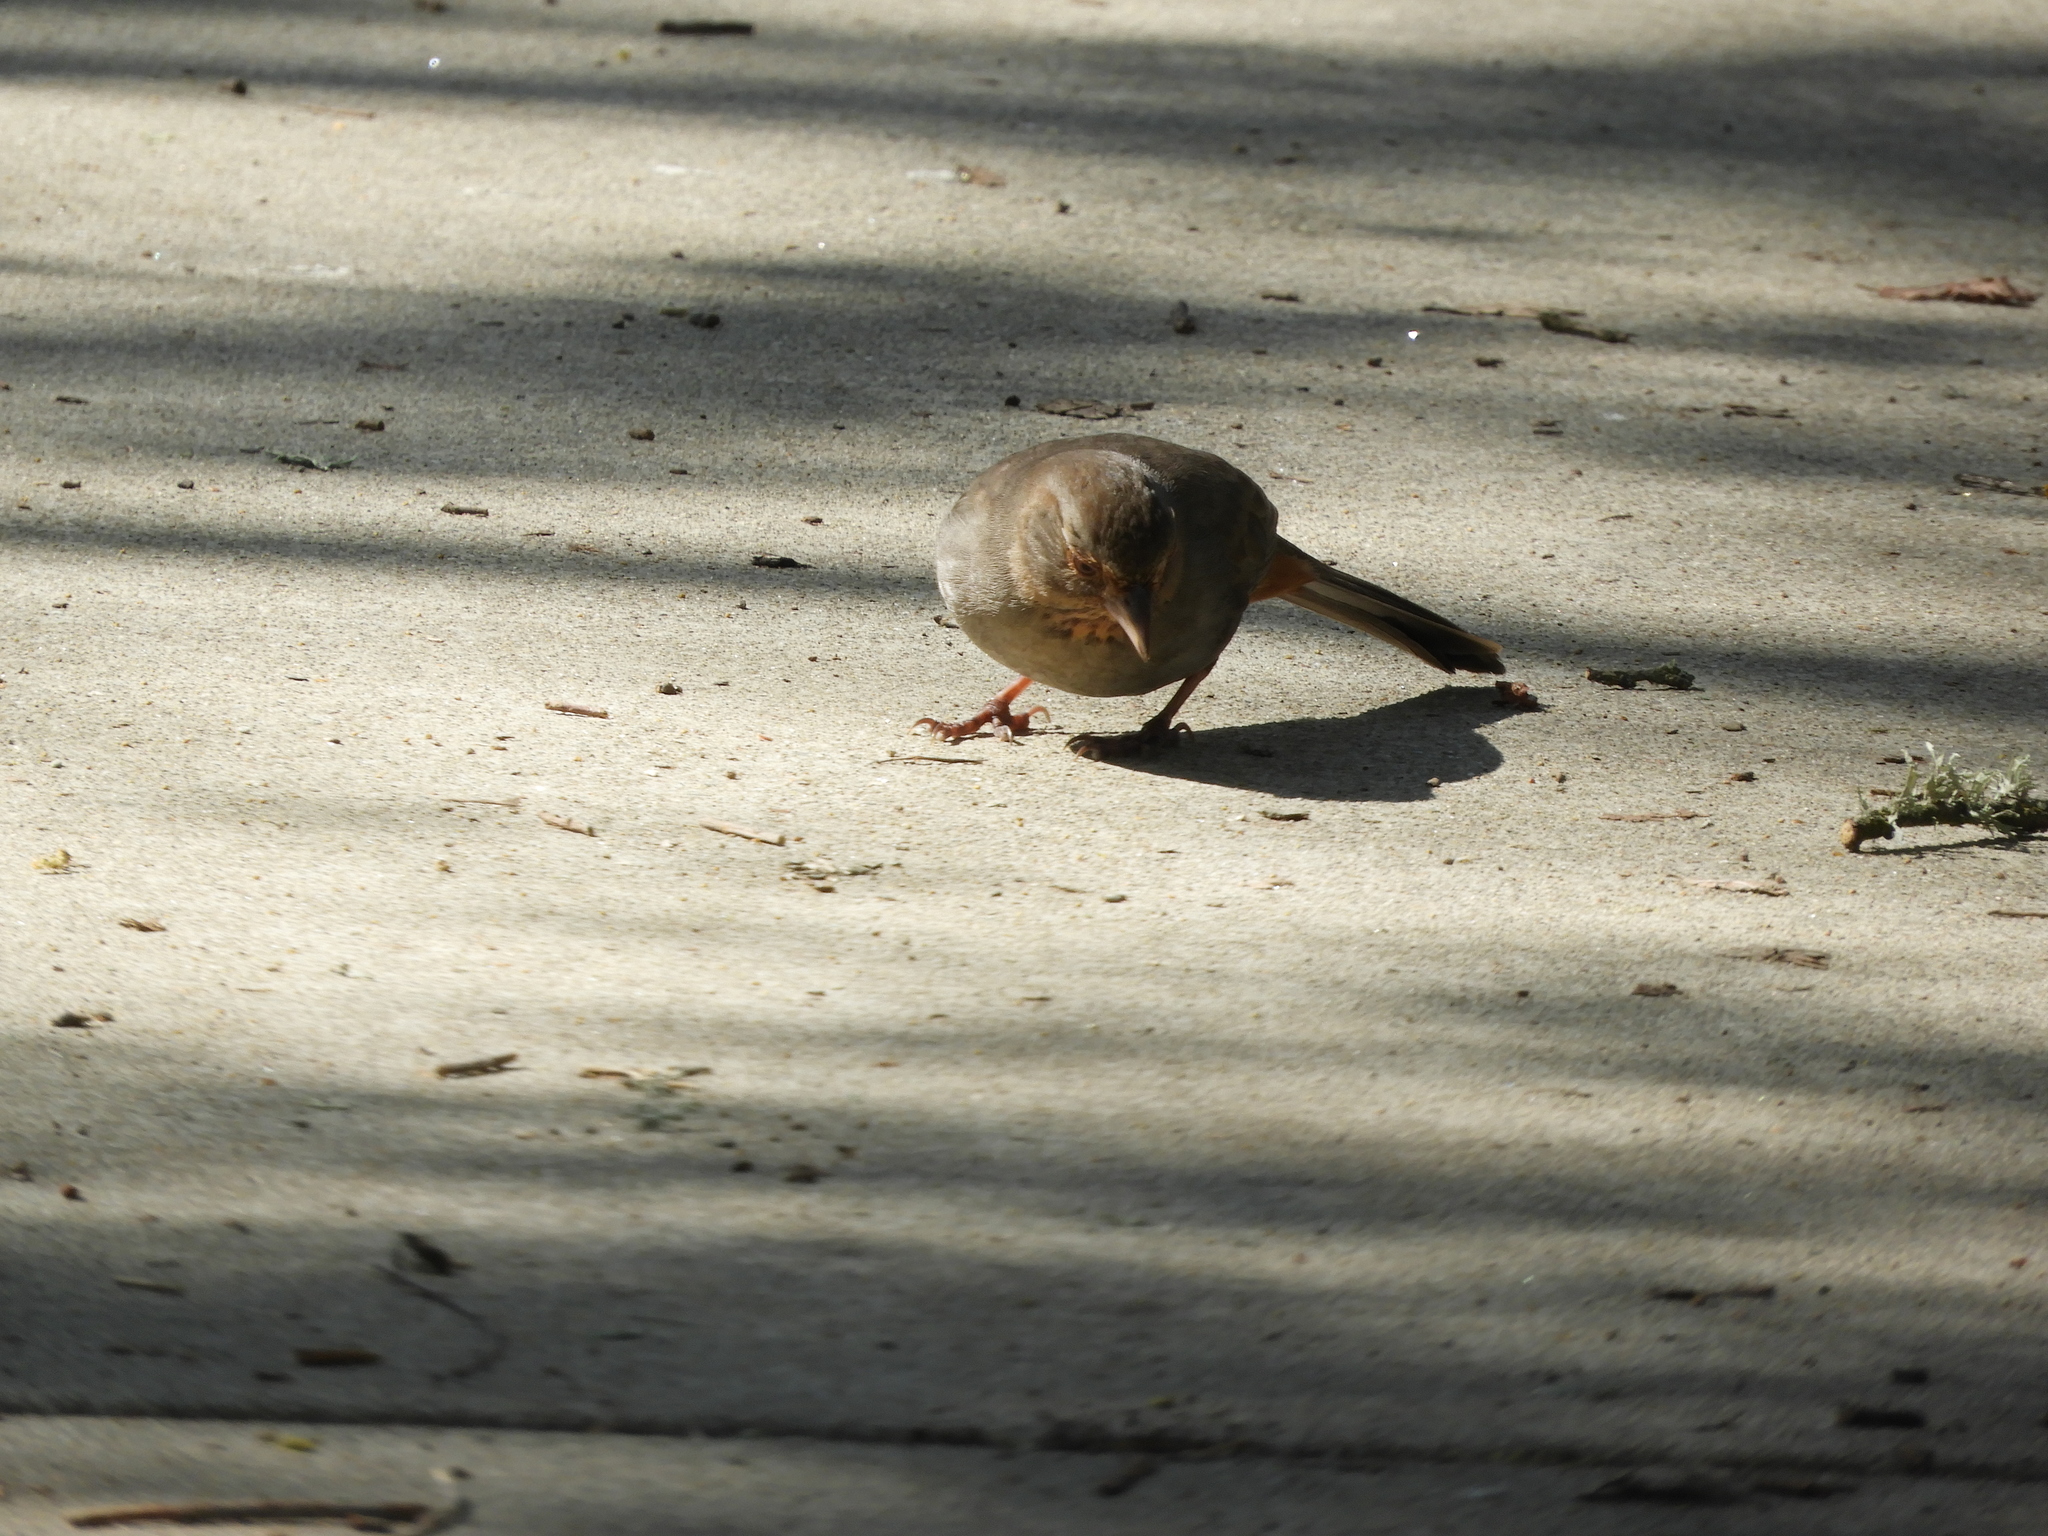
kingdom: Animalia
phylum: Chordata
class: Aves
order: Passeriformes
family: Passerellidae
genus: Melozone
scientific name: Melozone crissalis
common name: California towhee
